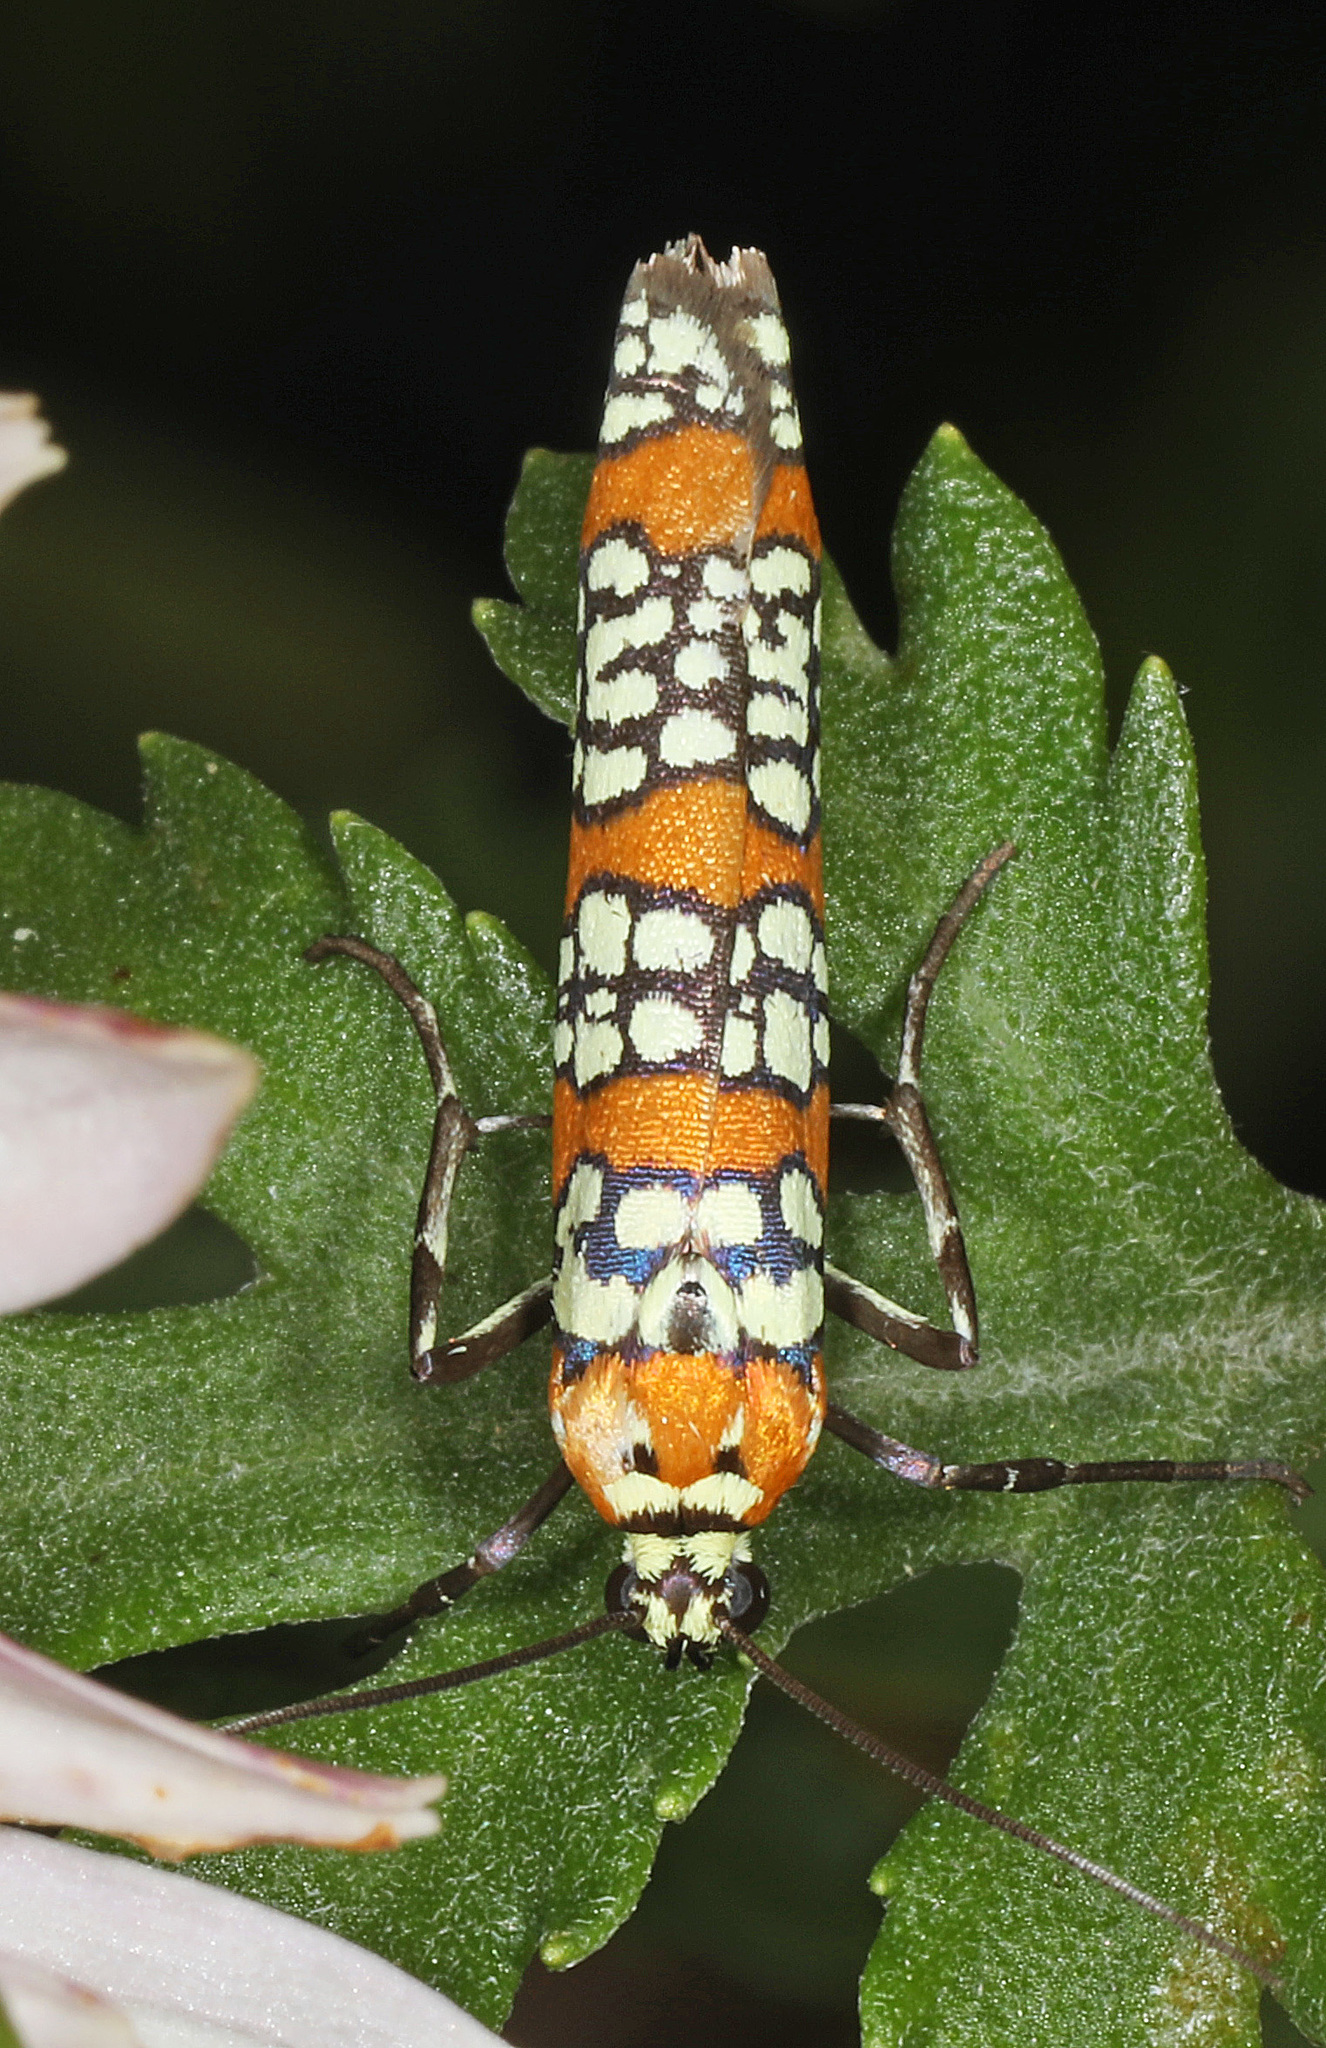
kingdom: Animalia
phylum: Arthropoda
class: Insecta
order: Lepidoptera
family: Attevidae
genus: Atteva
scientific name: Atteva punctella
